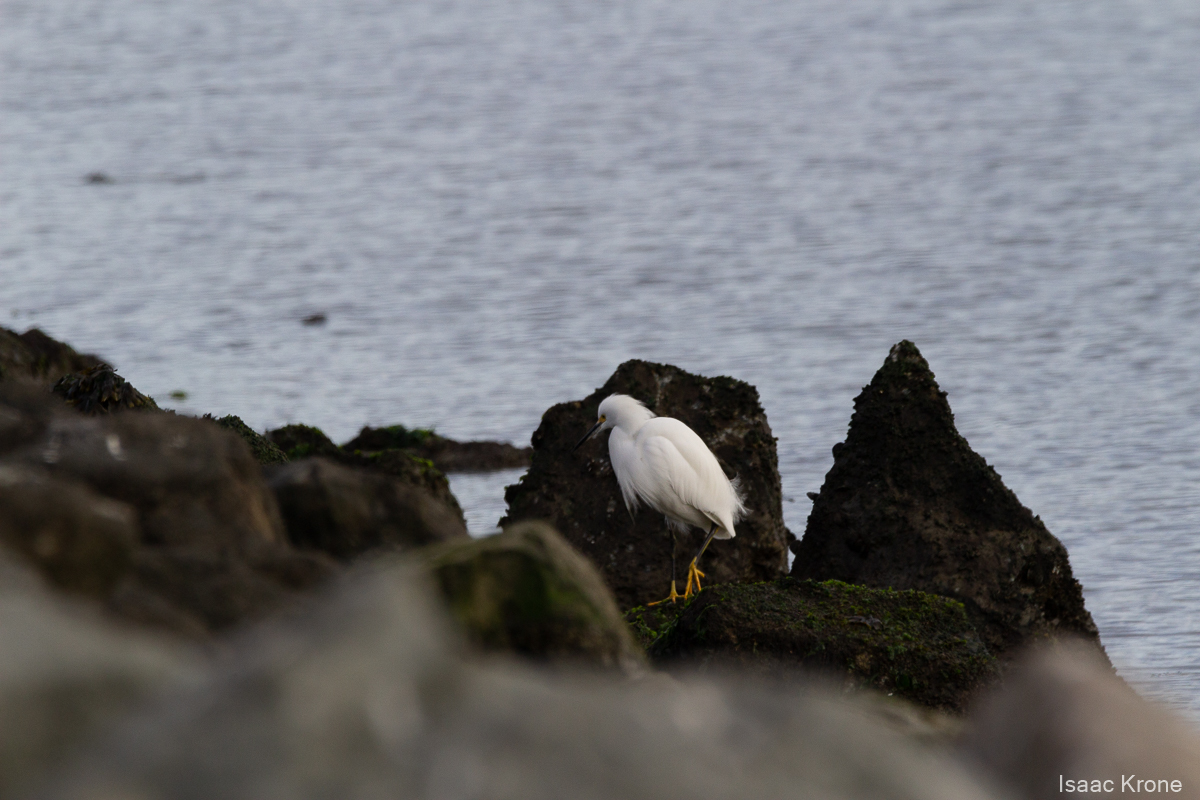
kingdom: Animalia
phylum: Chordata
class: Aves
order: Pelecaniformes
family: Ardeidae
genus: Egretta
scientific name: Egretta thula
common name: Snowy egret
